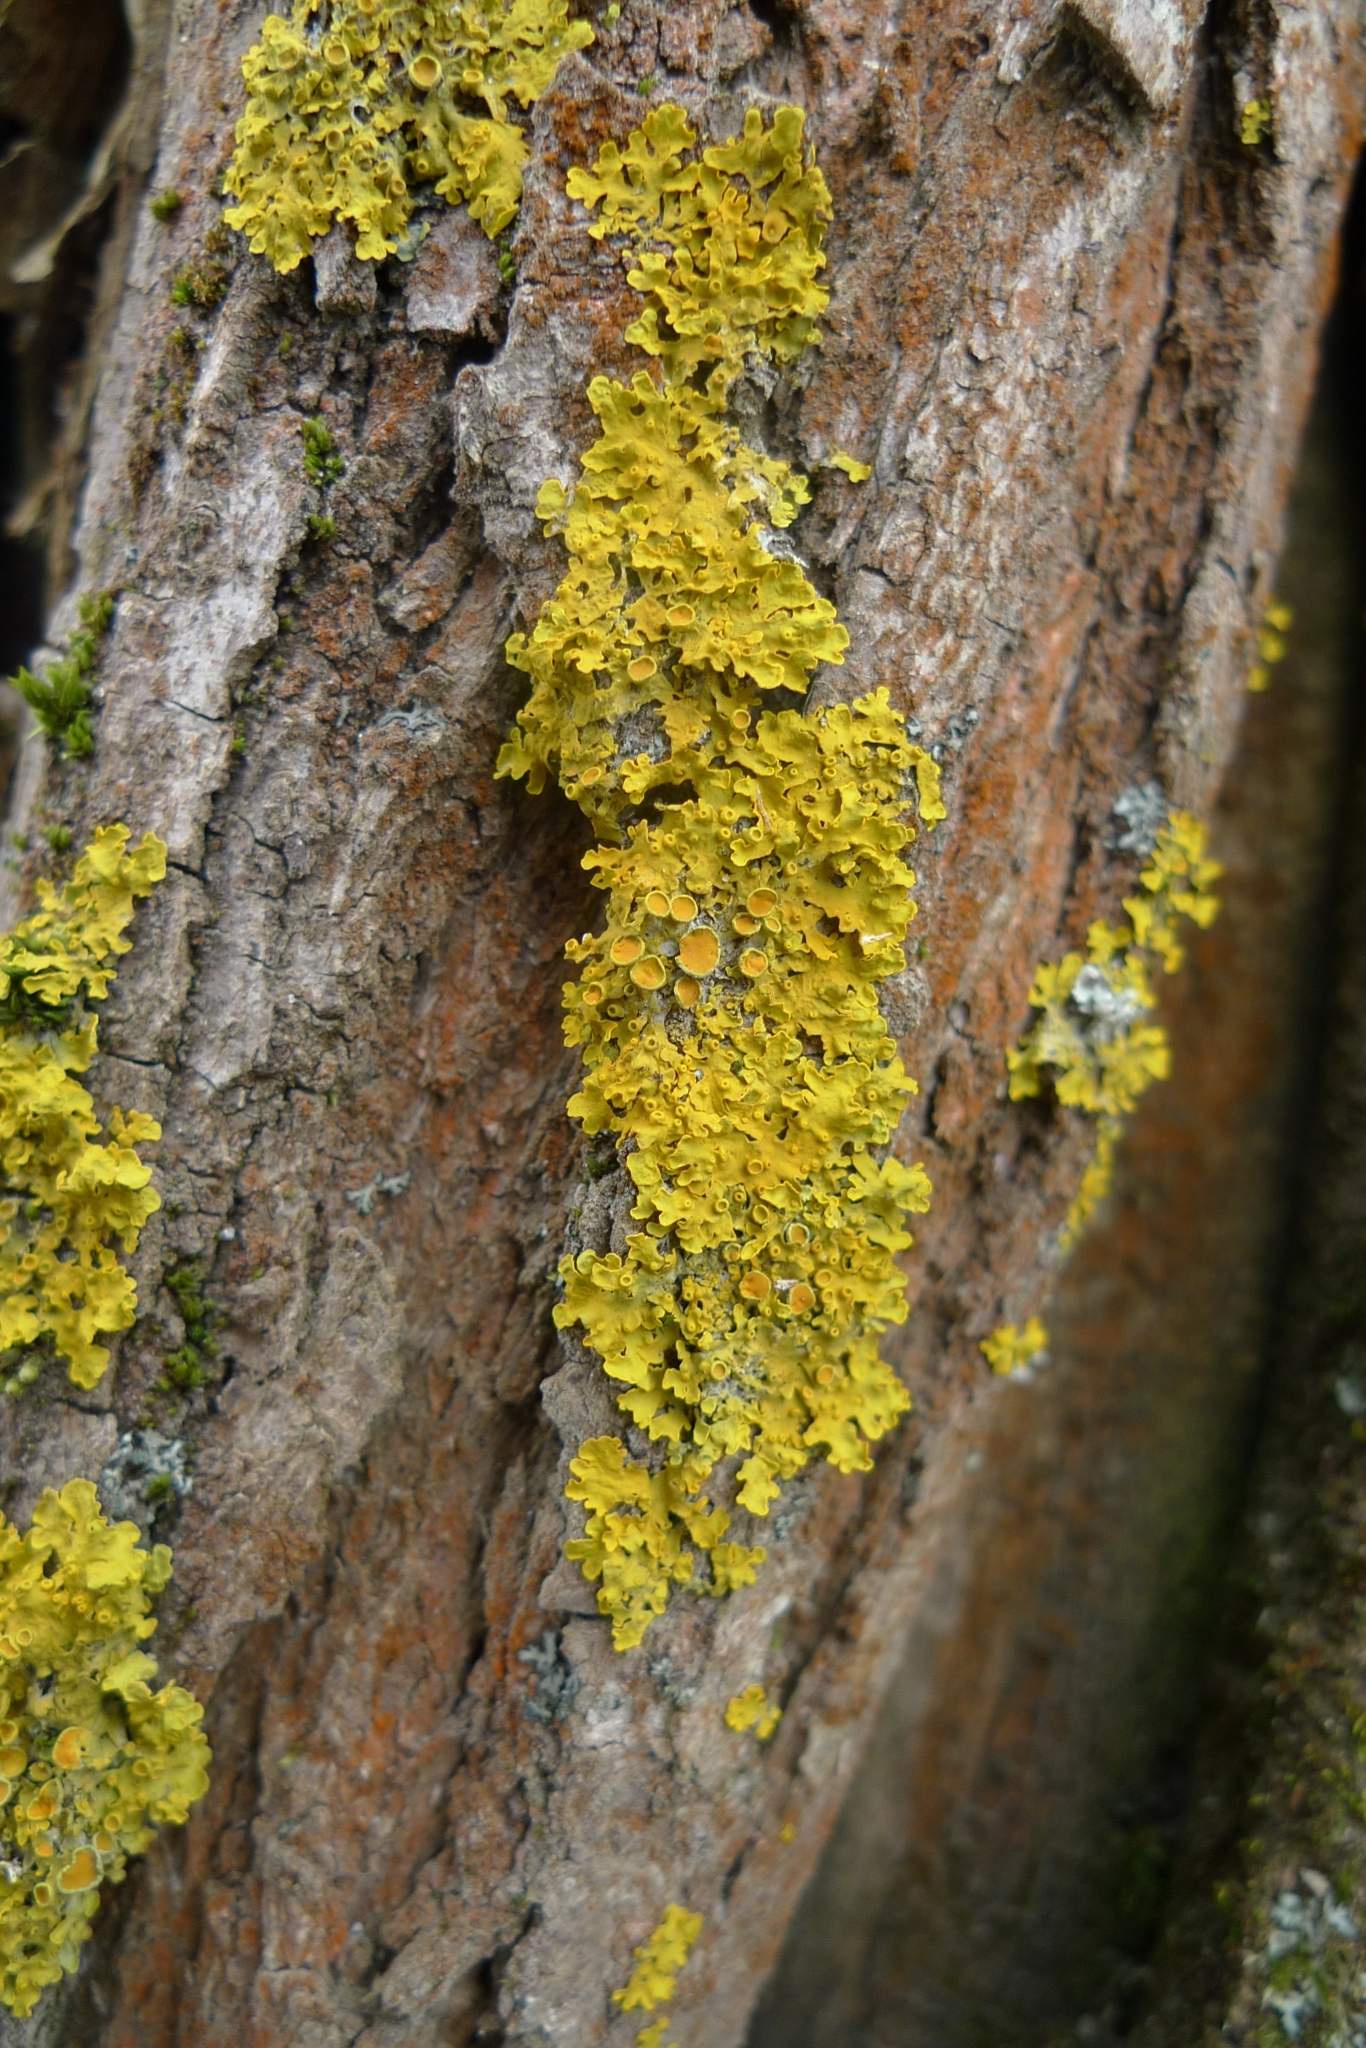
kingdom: Fungi
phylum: Ascomycota
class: Lecanoromycetes
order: Teloschistales
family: Teloschistaceae
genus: Xanthoria
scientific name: Xanthoria parietina
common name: Common orange lichen
